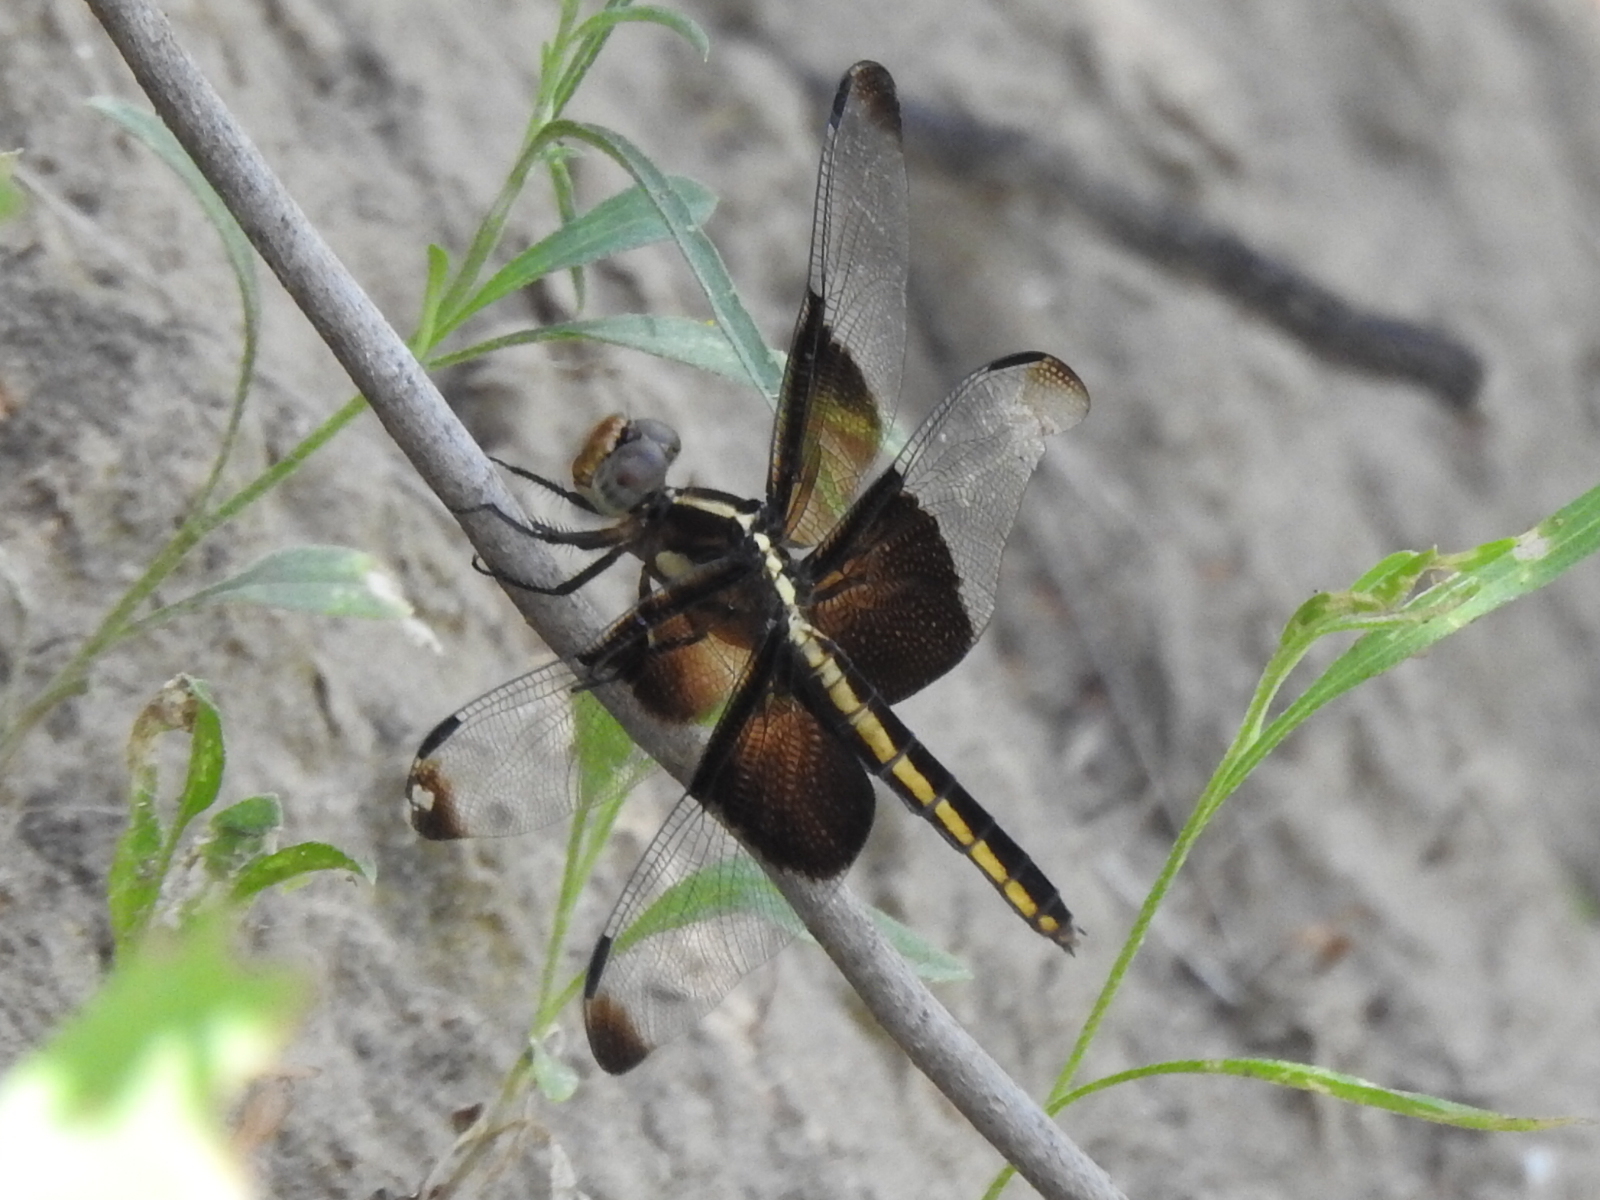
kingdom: Animalia
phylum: Arthropoda
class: Insecta
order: Odonata
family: Libellulidae
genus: Libellula
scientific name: Libellula luctuosa
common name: Widow skimmer
